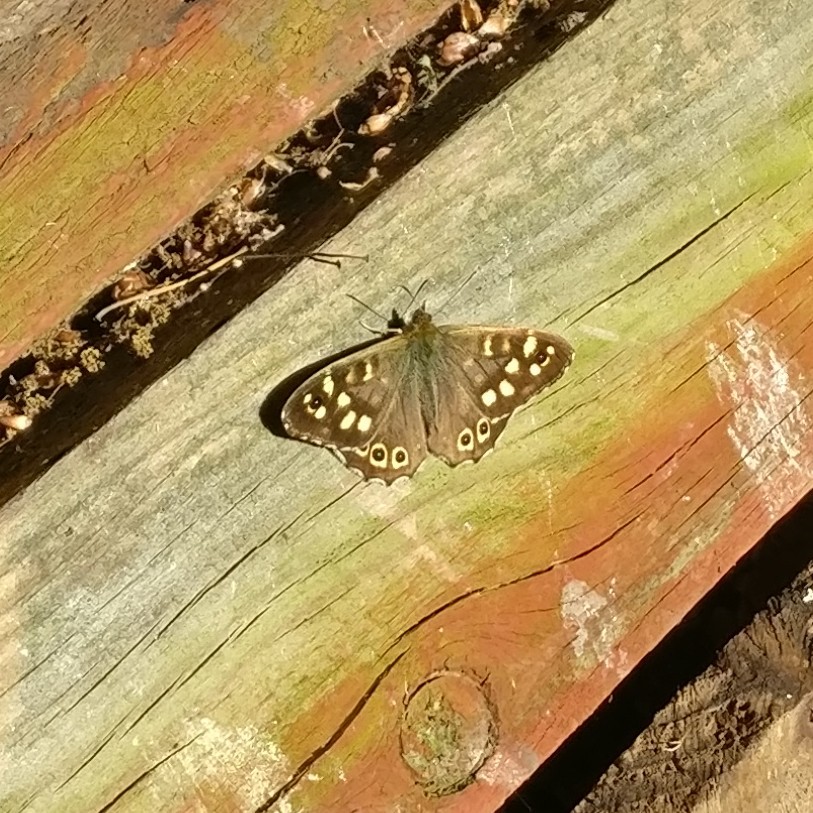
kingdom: Animalia
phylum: Arthropoda
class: Insecta
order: Lepidoptera
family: Nymphalidae
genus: Pararge
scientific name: Pararge aegeria
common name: Speckled wood
